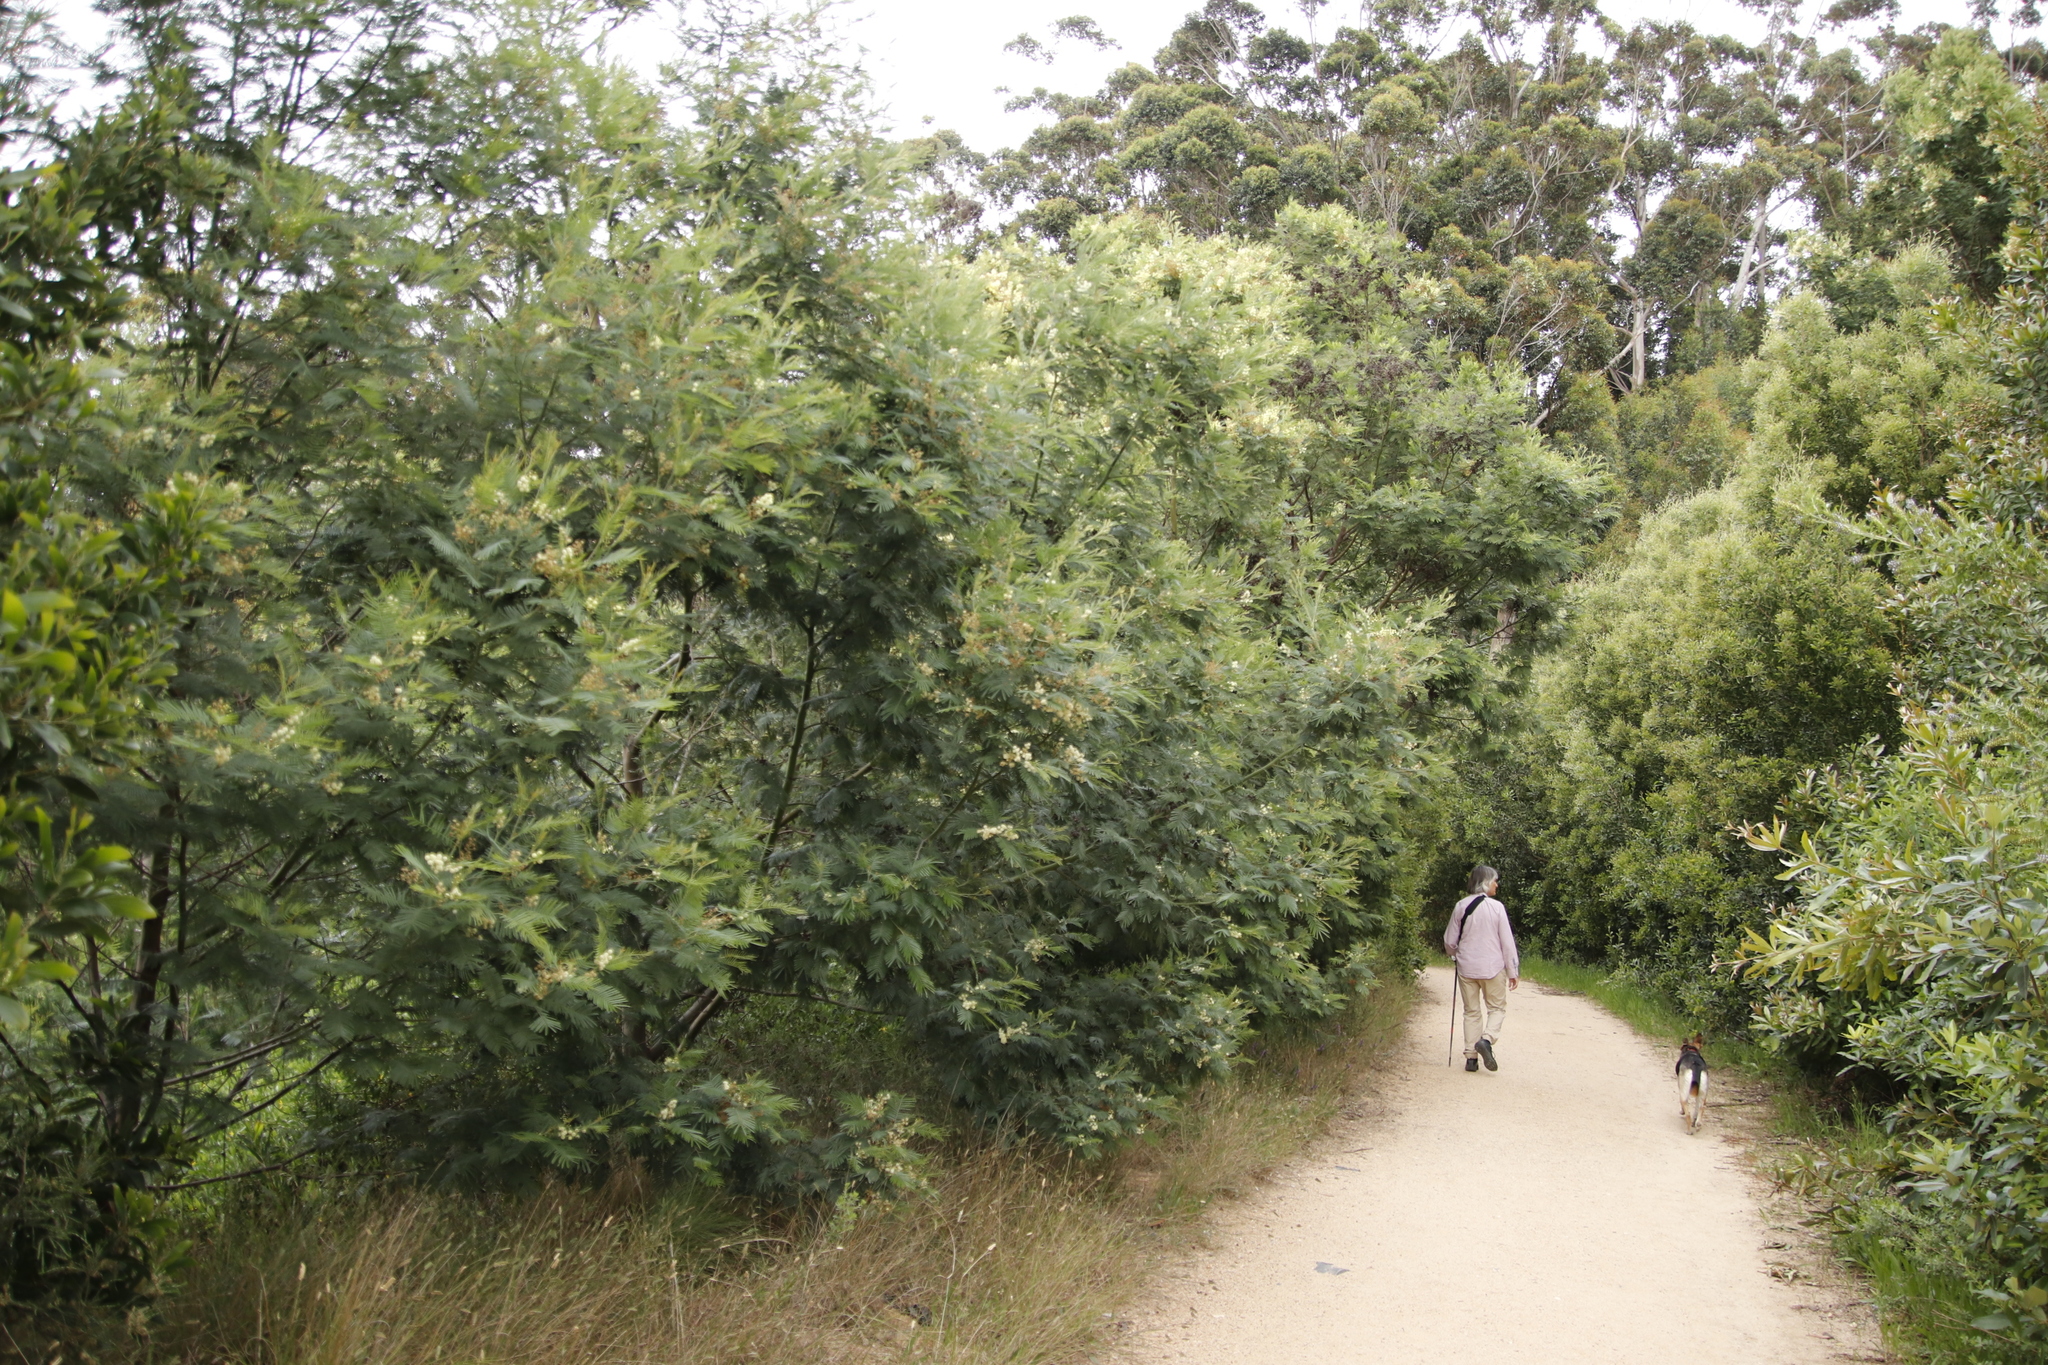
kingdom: Plantae
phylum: Tracheophyta
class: Magnoliopsida
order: Fabales
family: Fabaceae
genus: Acacia
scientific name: Acacia mearnsii
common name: Black wattle
